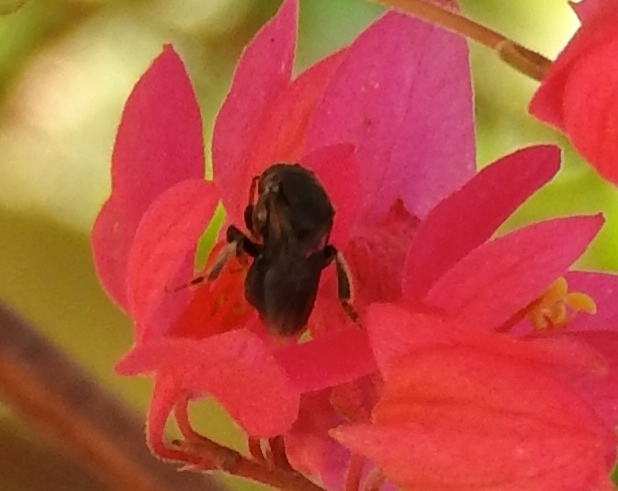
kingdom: Animalia
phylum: Arthropoda
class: Insecta
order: Hymenoptera
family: Apidae
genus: Apidae
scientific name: Apidae
